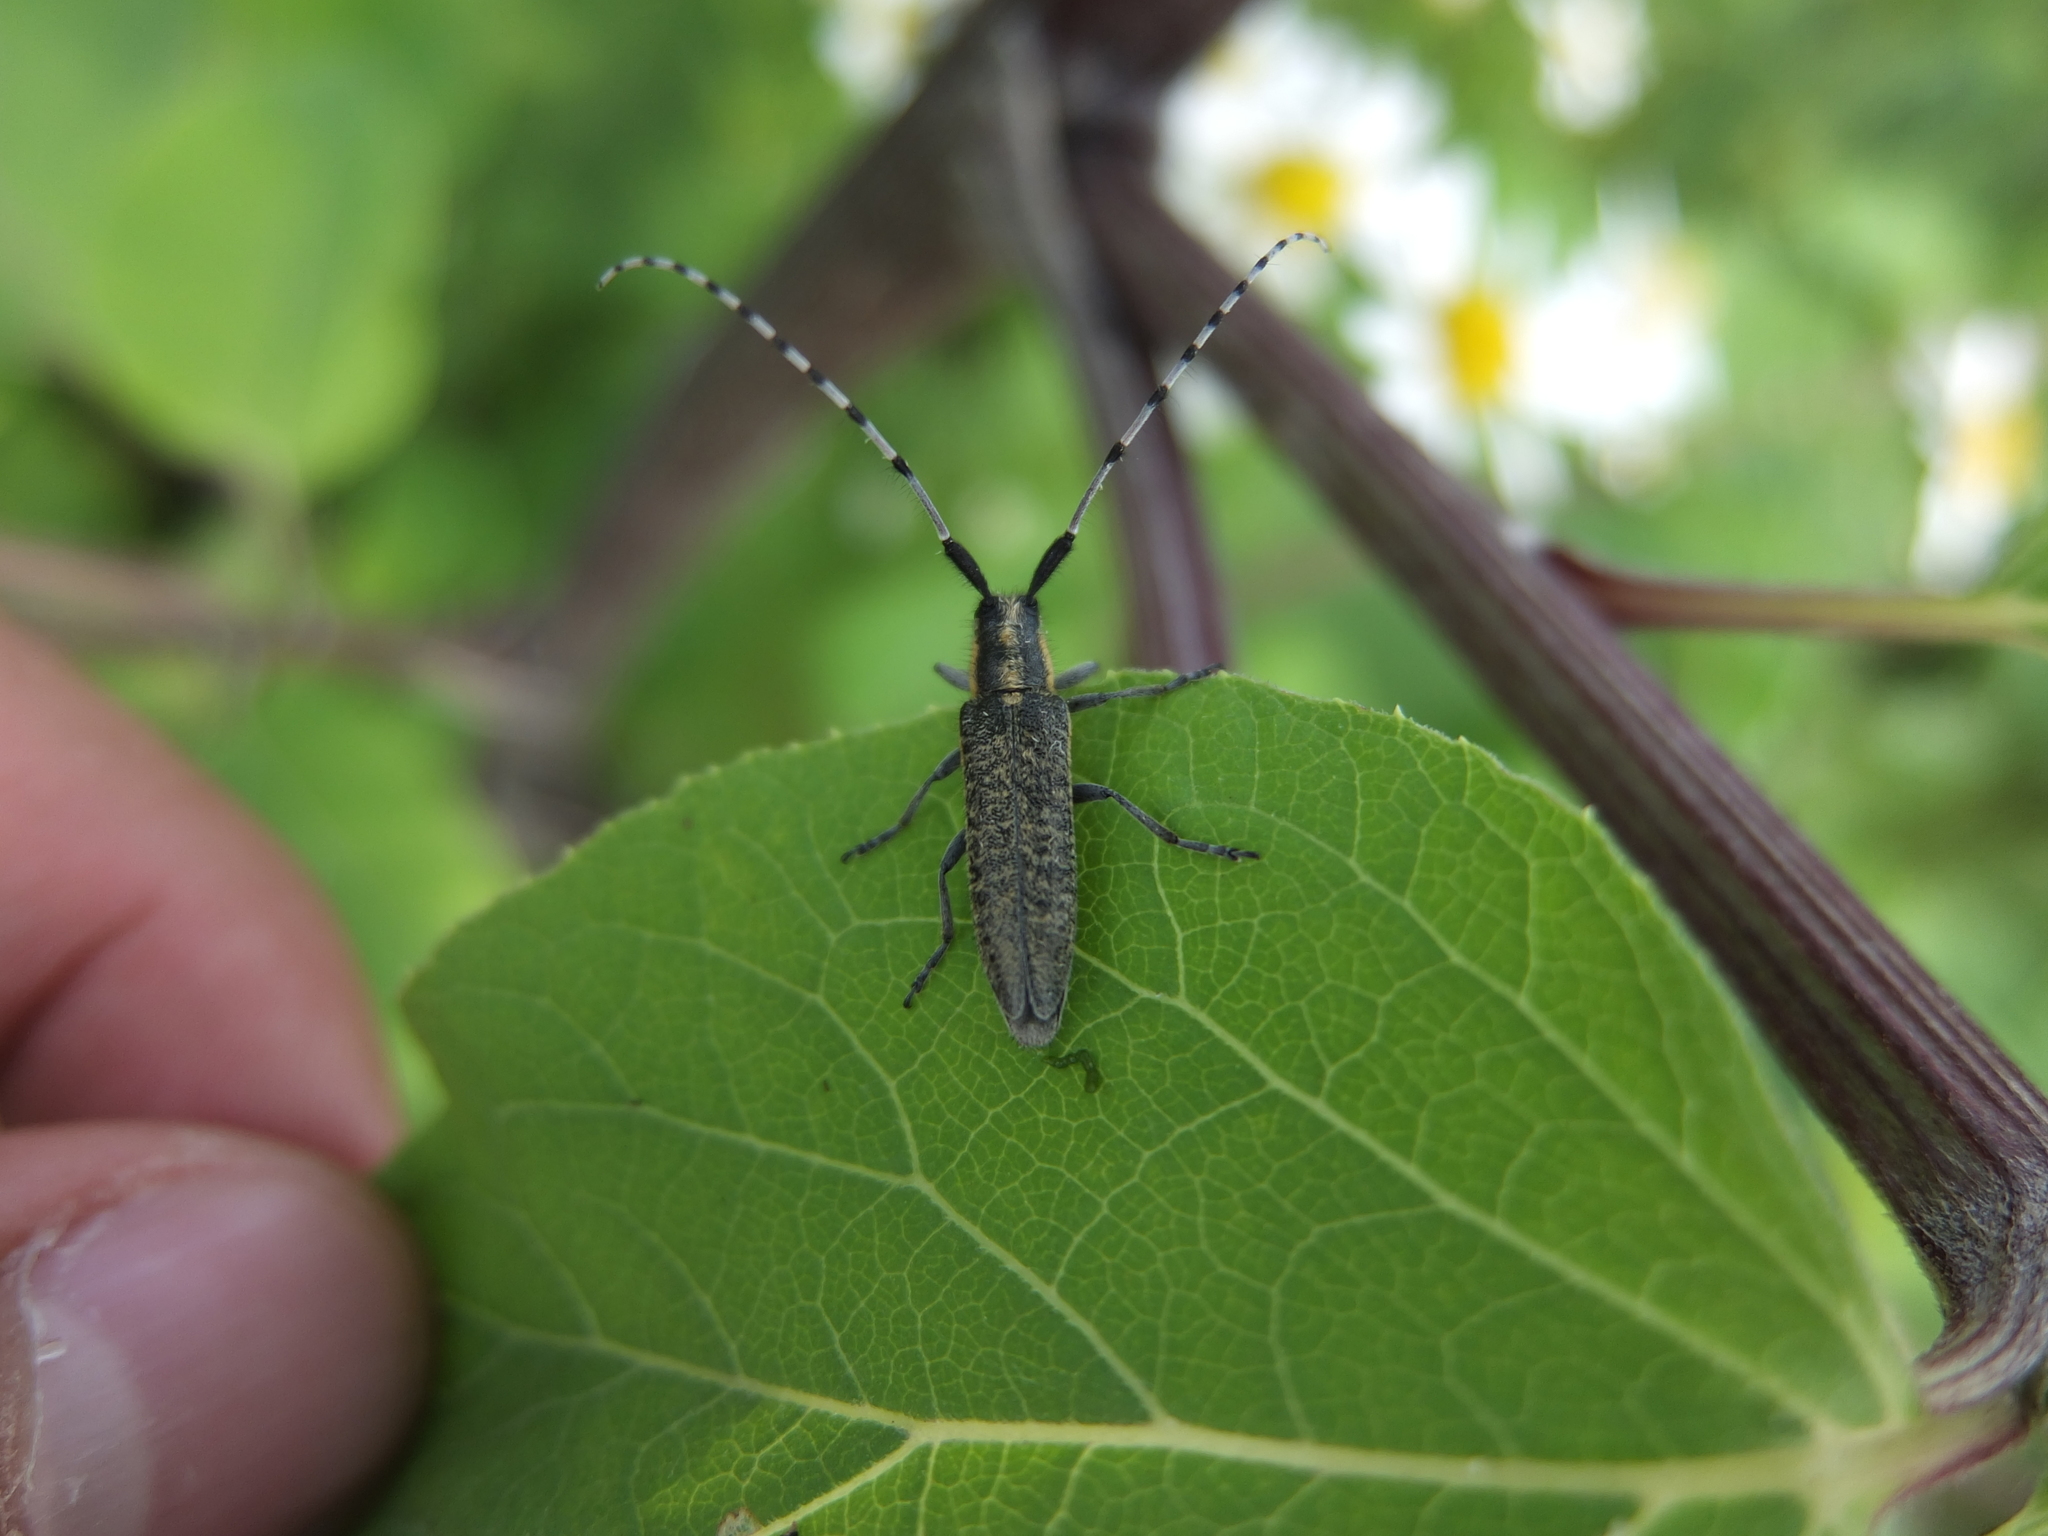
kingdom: Animalia
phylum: Arthropoda
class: Insecta
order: Coleoptera
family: Cerambycidae
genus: Agapanthia
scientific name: Agapanthia villosoviridescens
